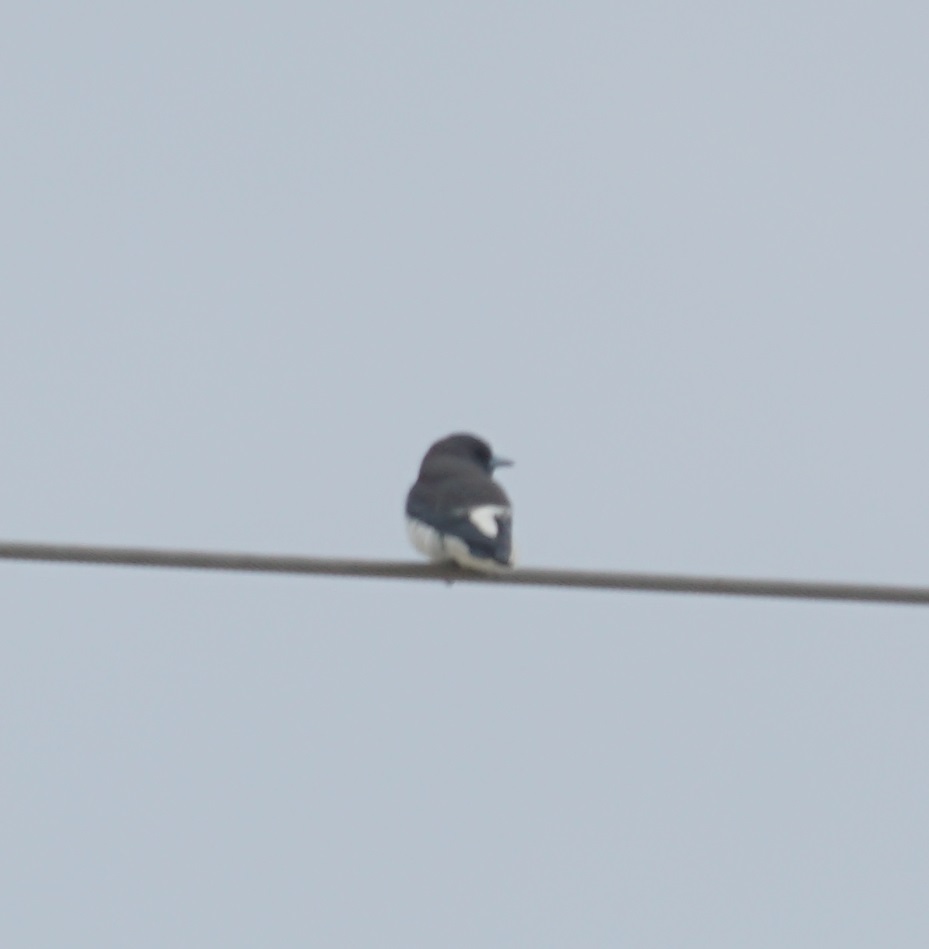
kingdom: Animalia
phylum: Chordata
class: Aves
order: Passeriformes
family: Artamidae
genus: Artamus
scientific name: Artamus leucoryn
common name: White-breasted woodswallow
